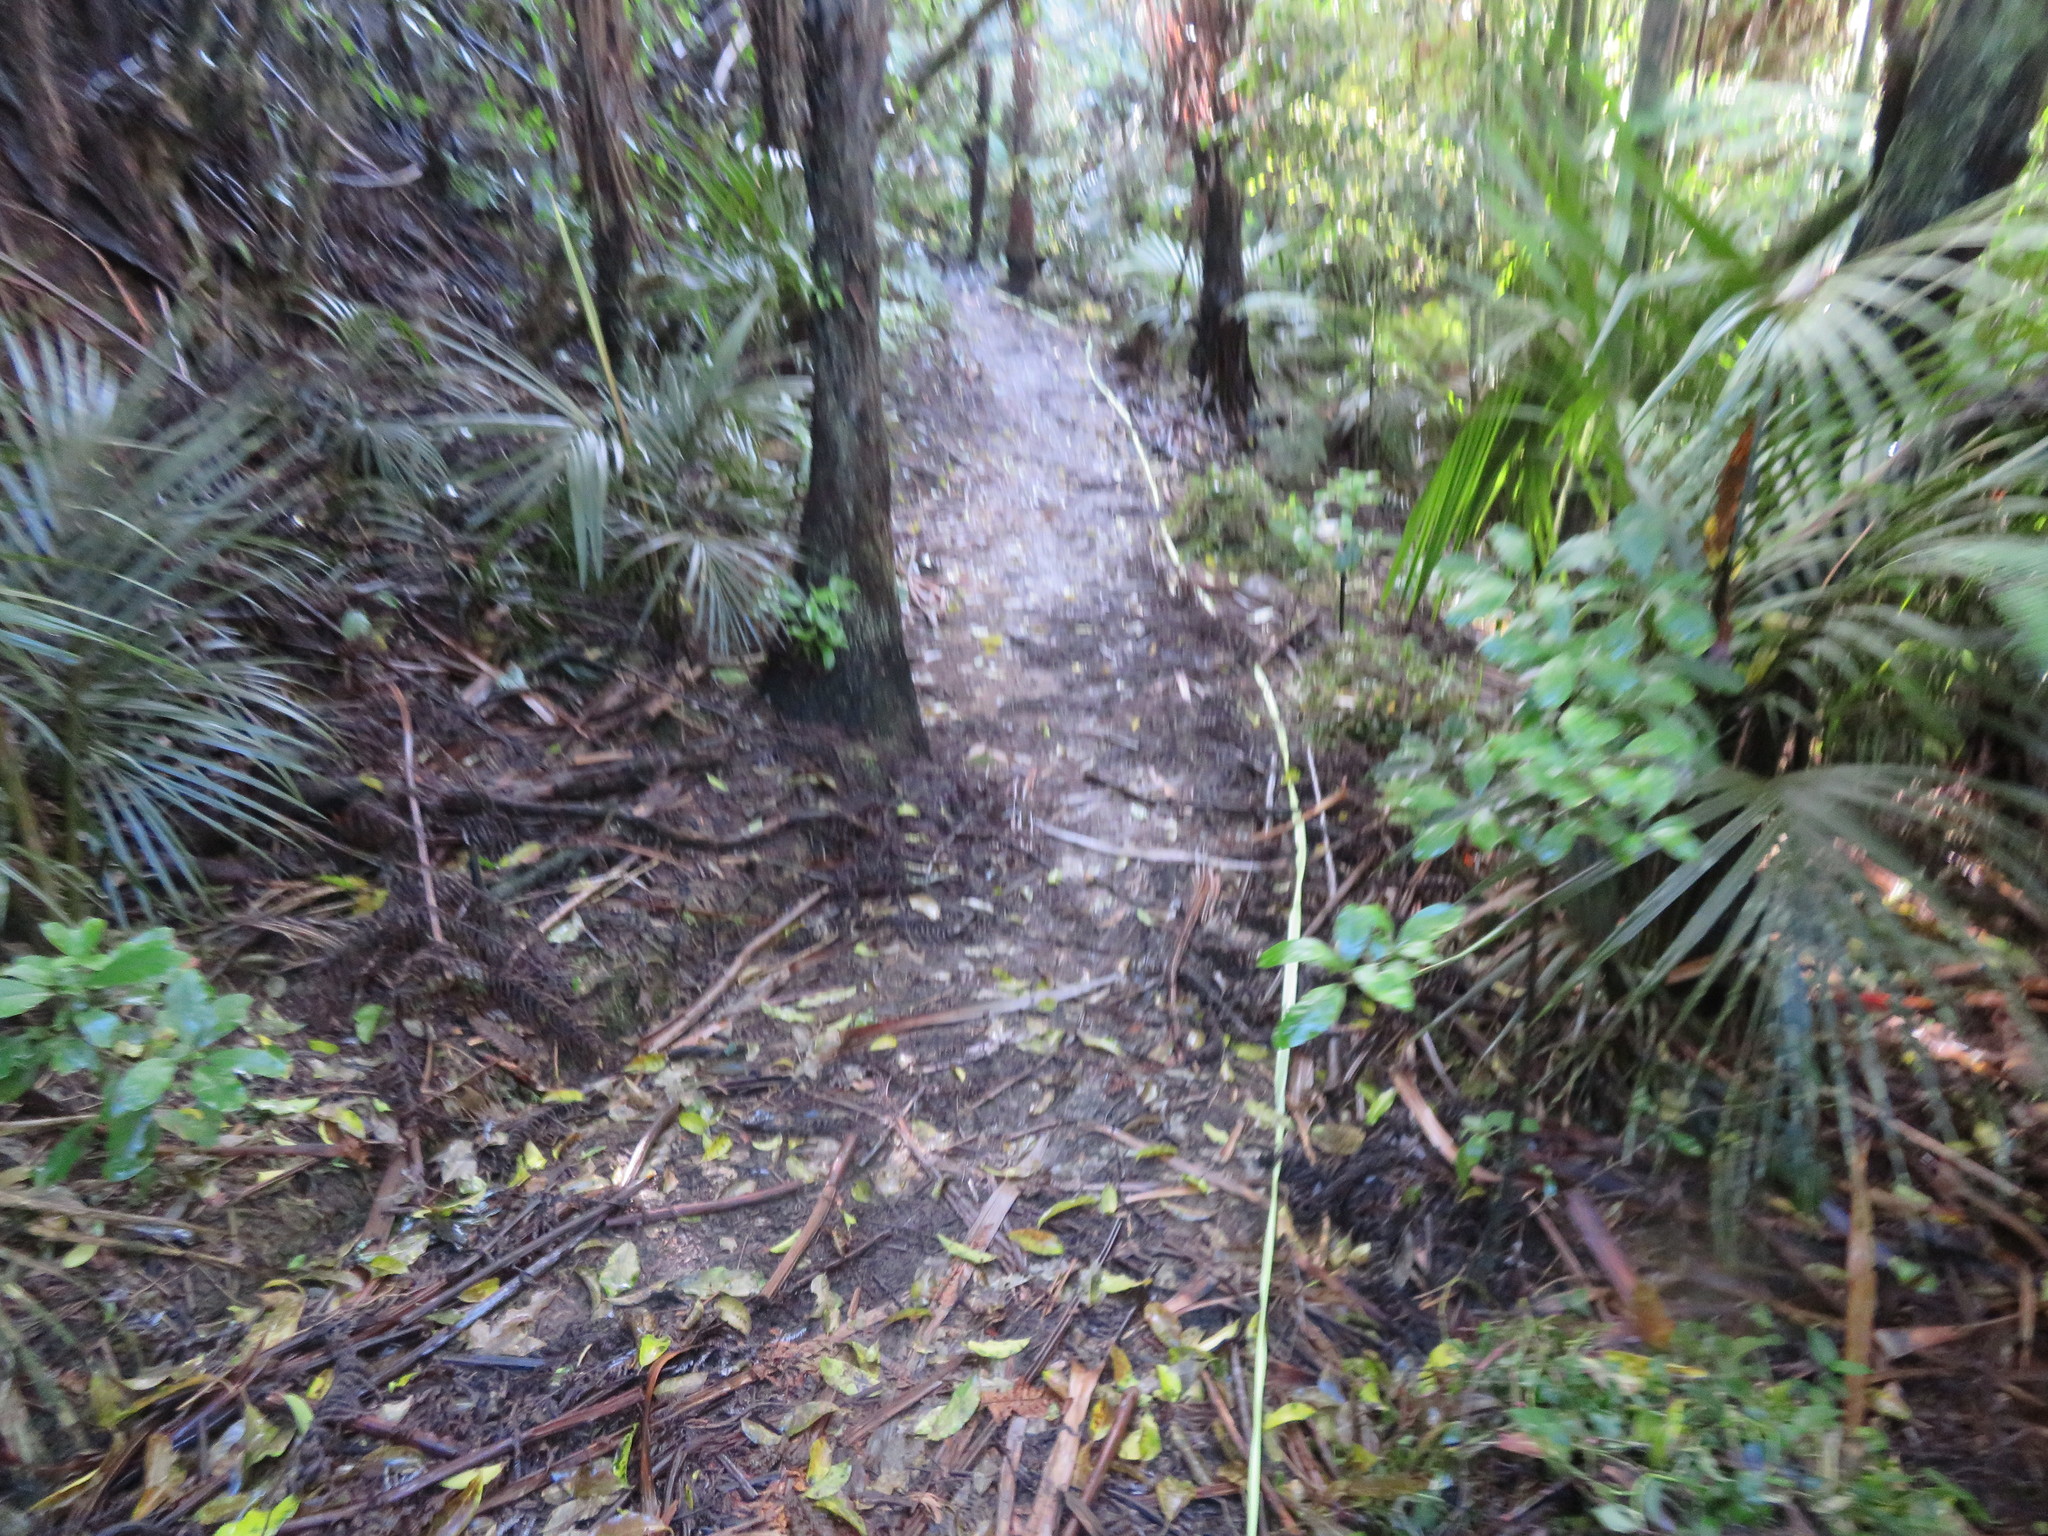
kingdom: Plantae
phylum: Tracheophyta
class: Liliopsida
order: Arecales
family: Arecaceae
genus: Rhopalostylis
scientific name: Rhopalostylis sapida
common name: Feather-duster palm
